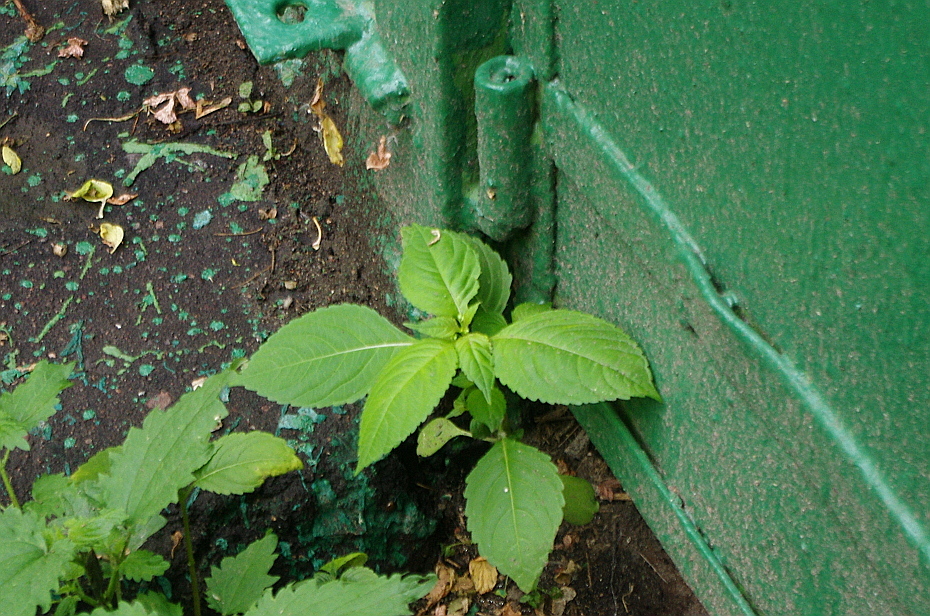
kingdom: Plantae
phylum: Tracheophyta
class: Magnoliopsida
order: Ericales
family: Balsaminaceae
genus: Impatiens
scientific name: Impatiens parviflora
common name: Small balsam
